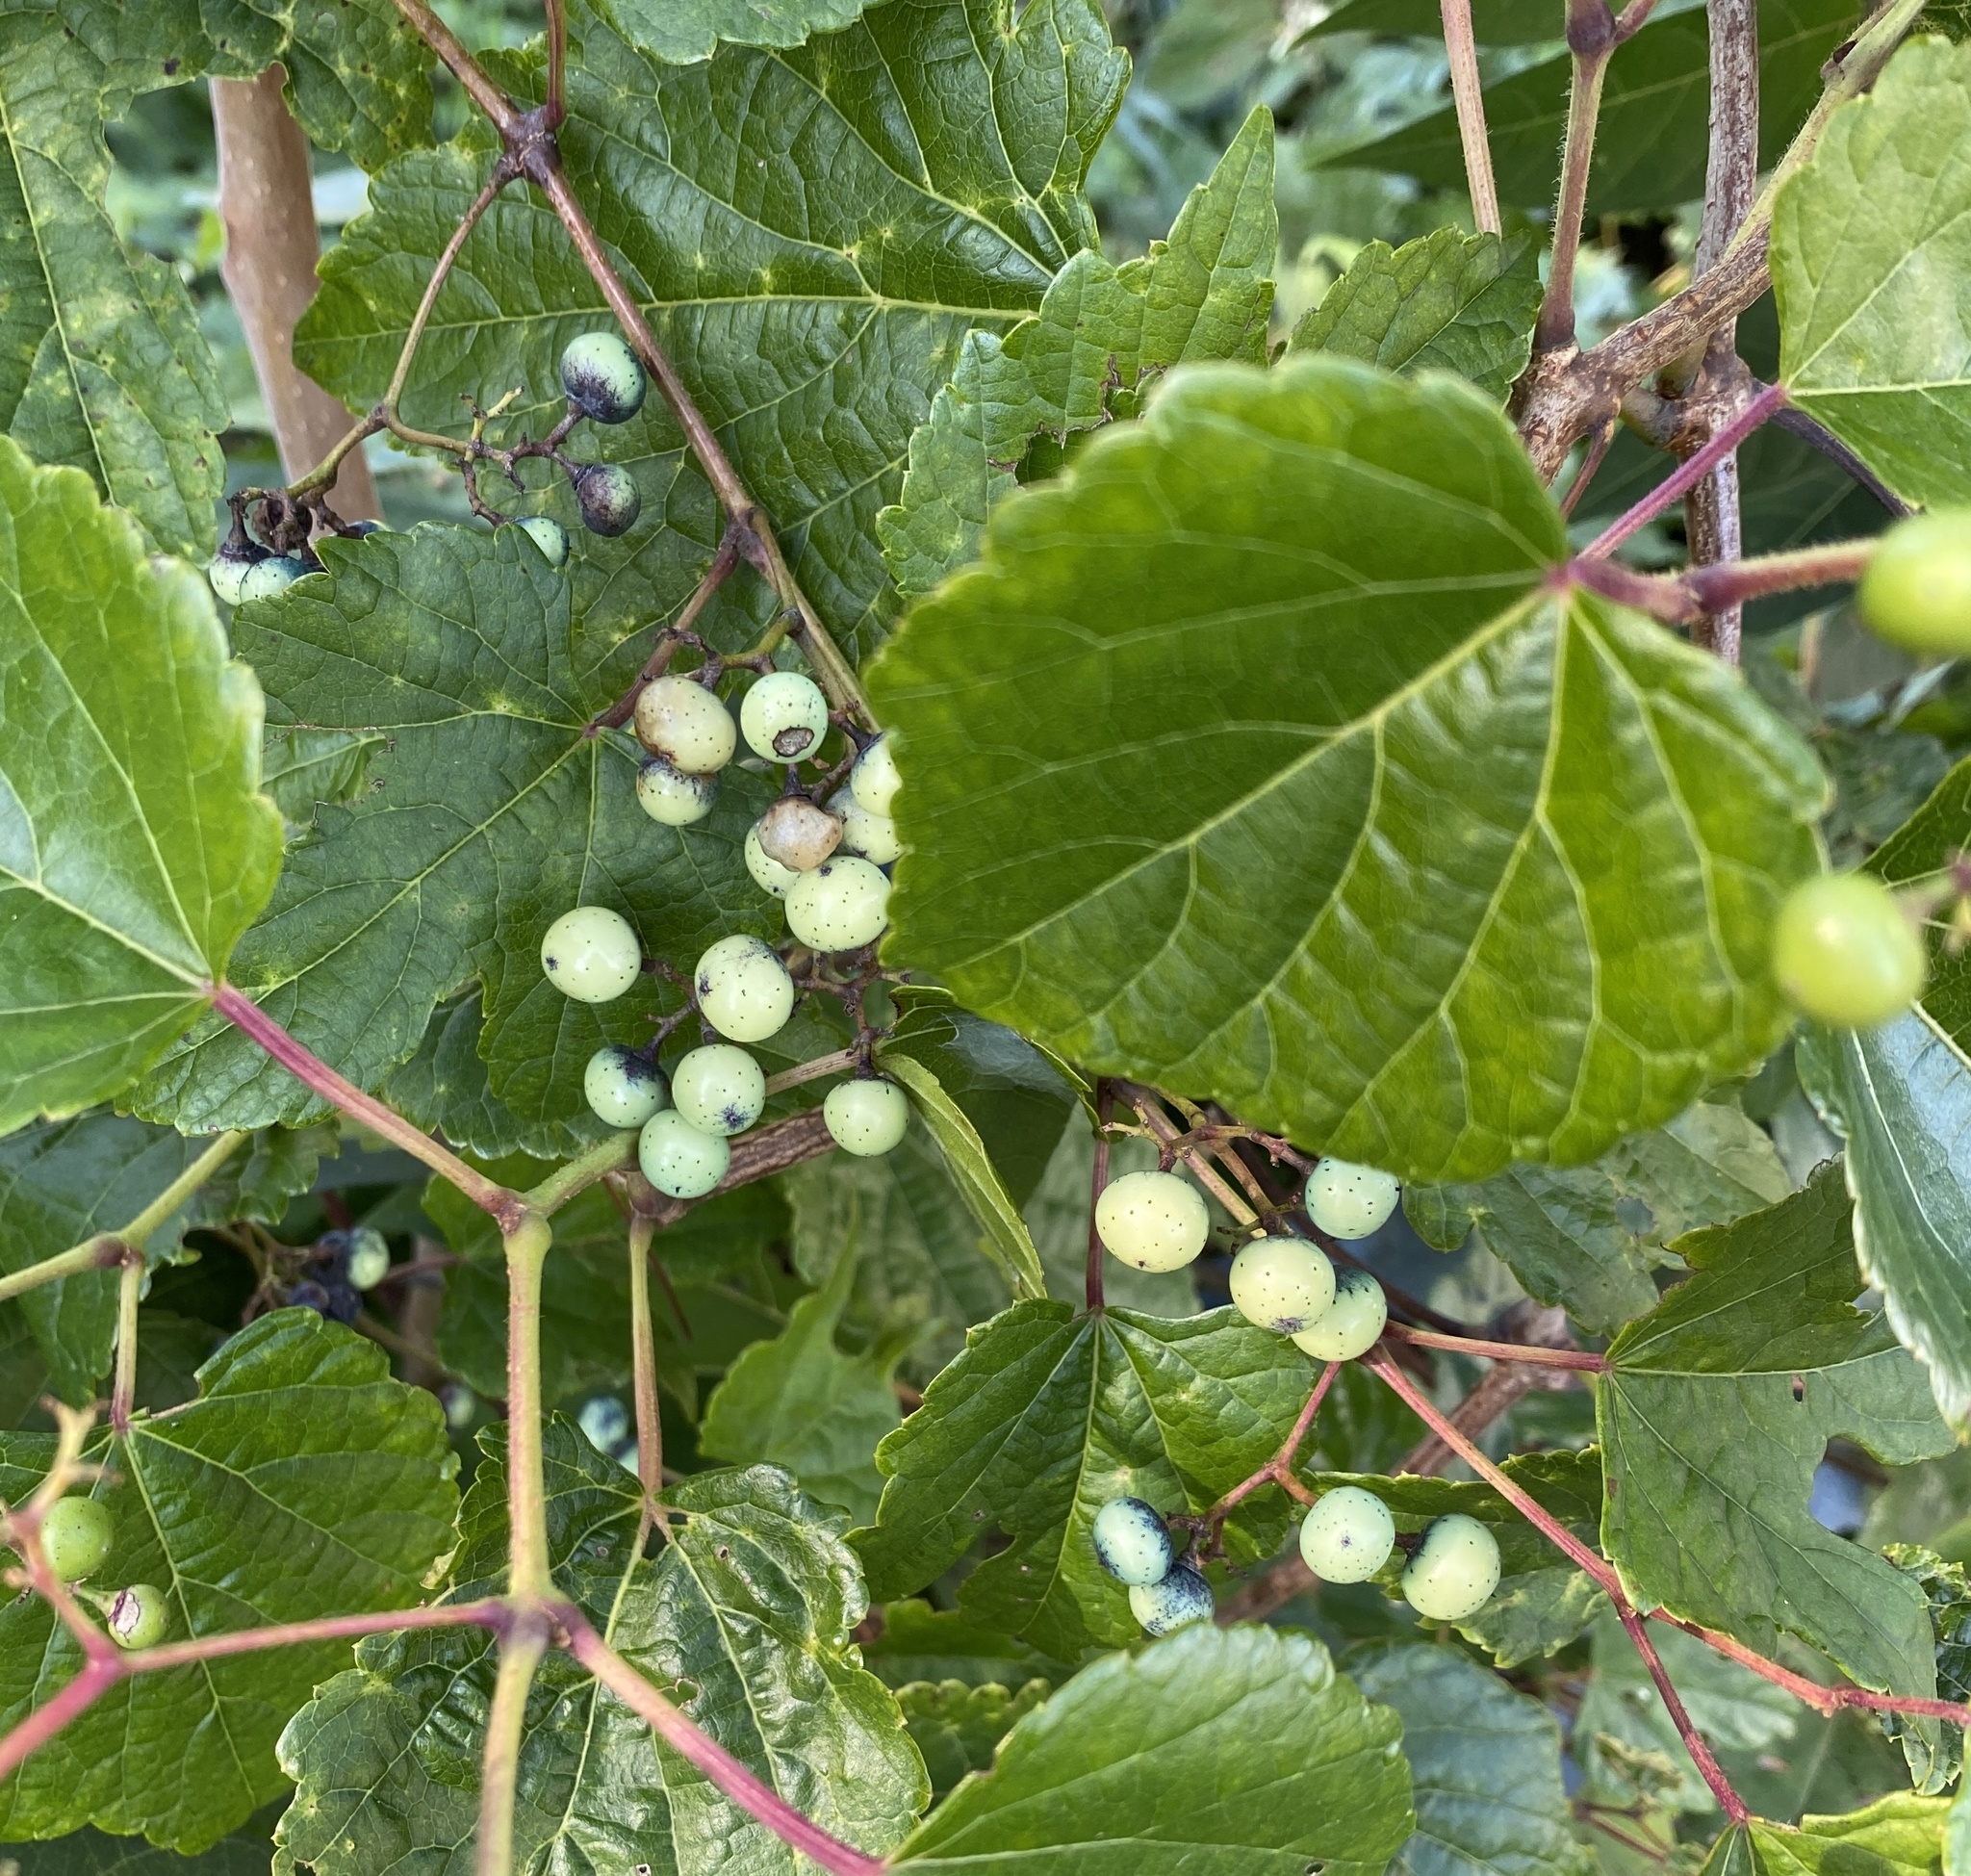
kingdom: Plantae
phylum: Tracheophyta
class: Magnoliopsida
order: Vitales
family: Vitaceae
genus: Ampelopsis
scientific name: Ampelopsis glandulosa
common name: Amur peppervine
